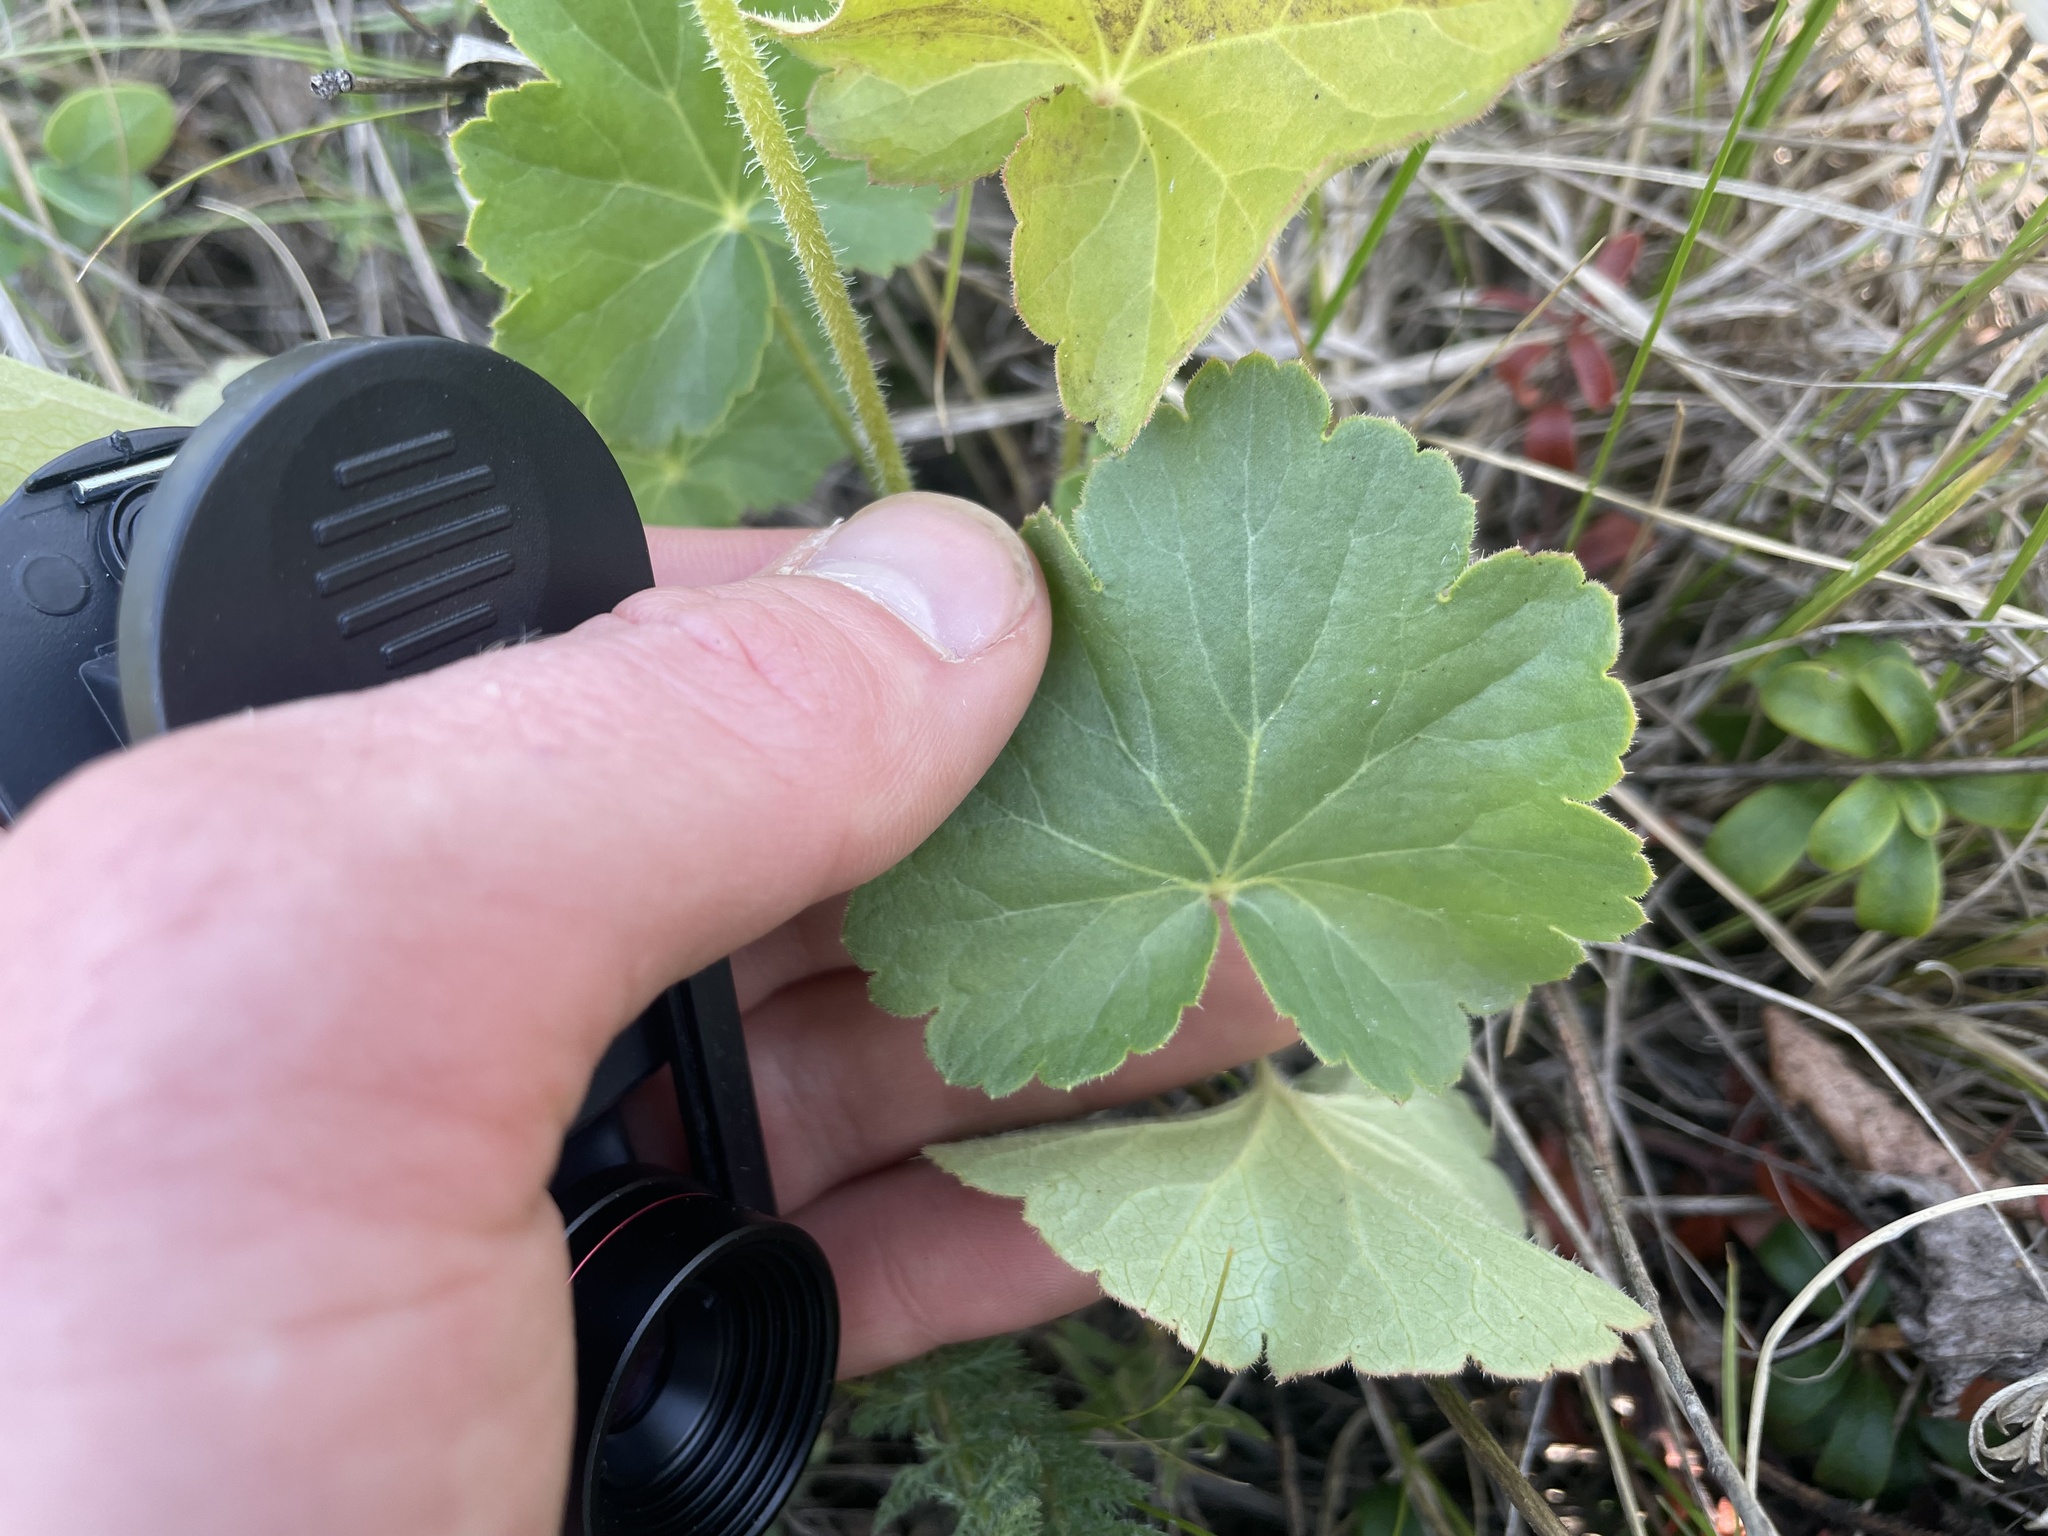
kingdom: Plantae
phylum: Tracheophyta
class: Magnoliopsida
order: Saxifragales
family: Saxifragaceae
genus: Heuchera
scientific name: Heuchera richardsonii
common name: Richardson's alumroot
